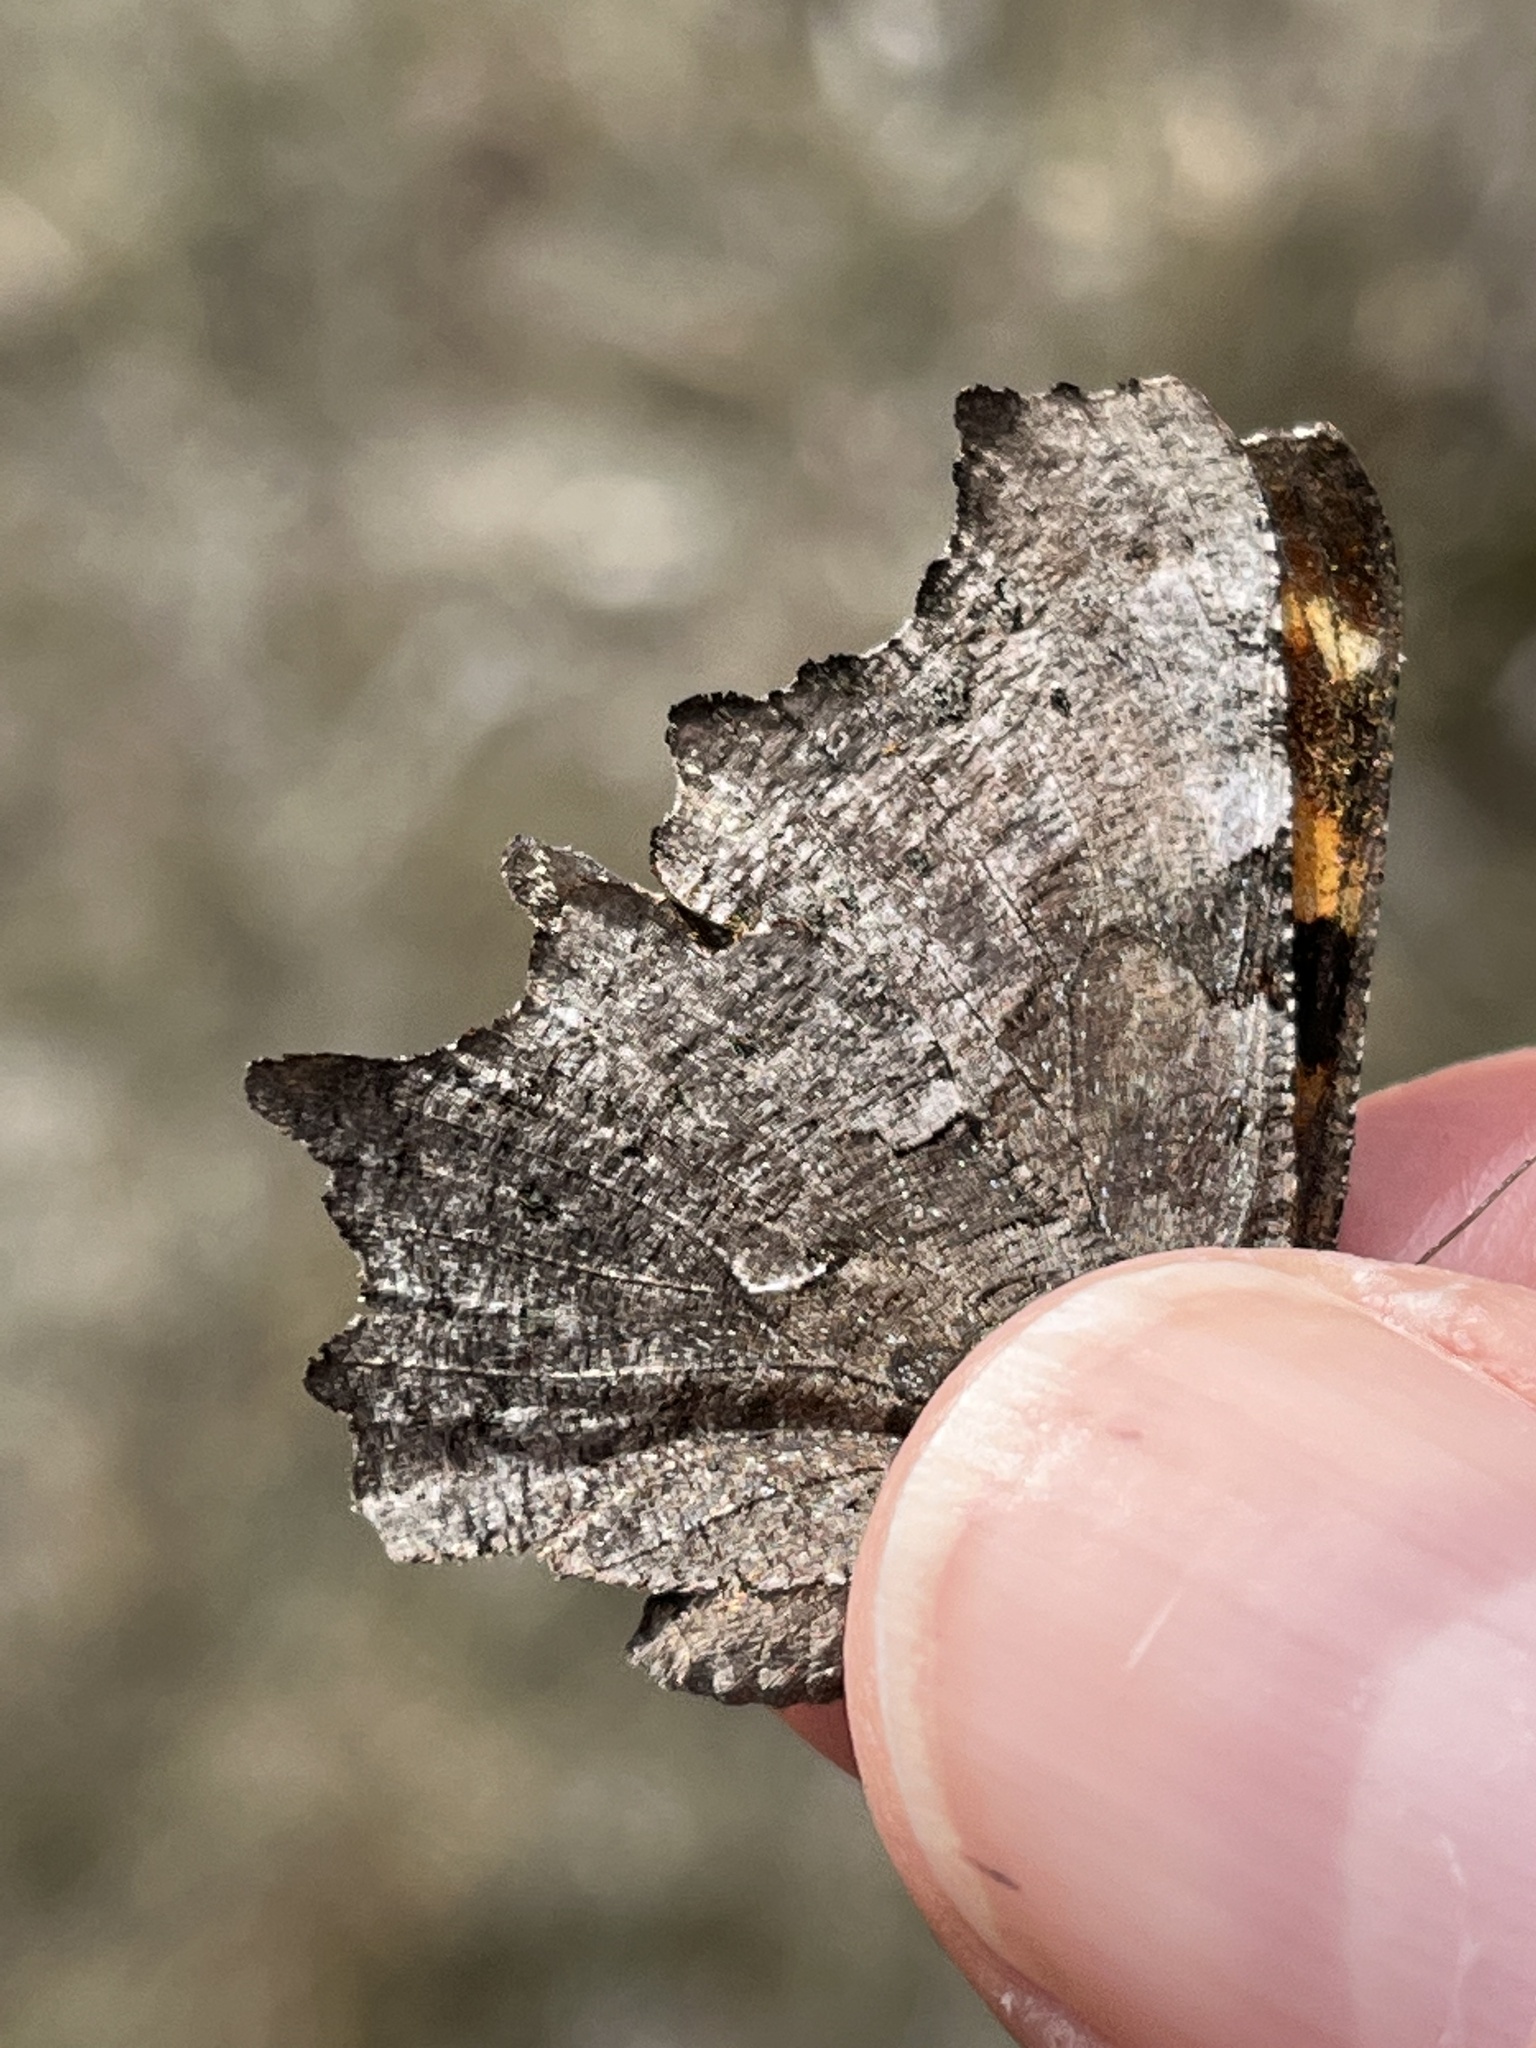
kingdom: Animalia
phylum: Arthropoda
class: Insecta
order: Lepidoptera
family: Nymphalidae
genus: Polygonia
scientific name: Polygonia gracilis
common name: Hoary comma
